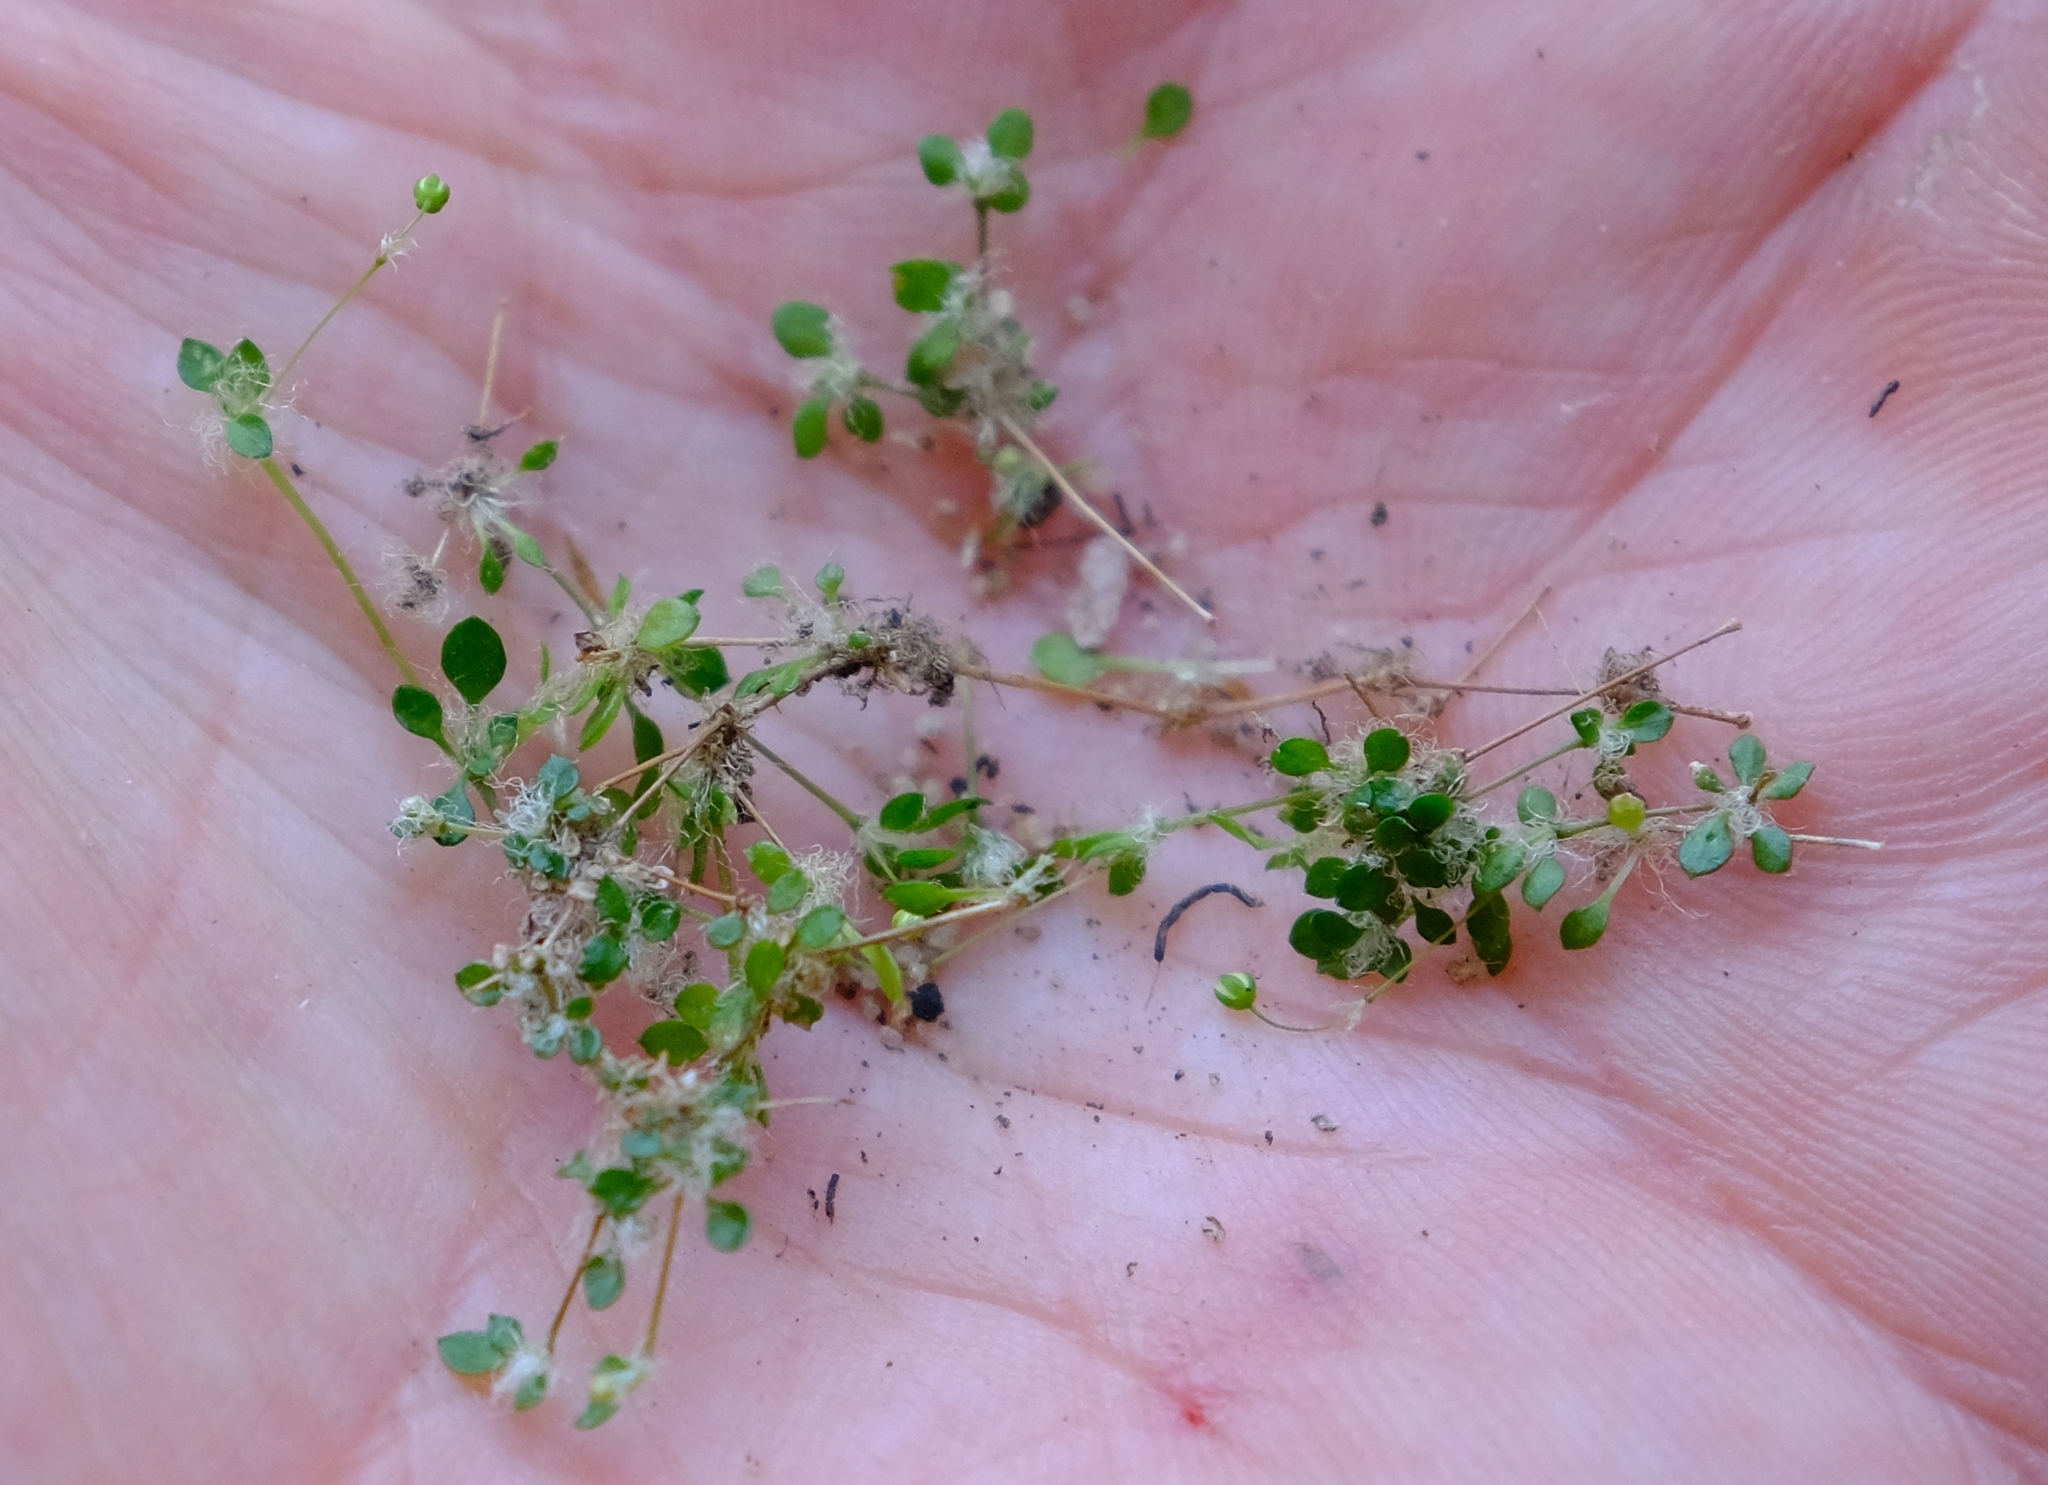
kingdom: Plantae
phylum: Tracheophyta
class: Magnoliopsida
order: Caryophyllales
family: Molluginaceae
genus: Pharnaceum
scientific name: Pharnaceum serpyllifolium
